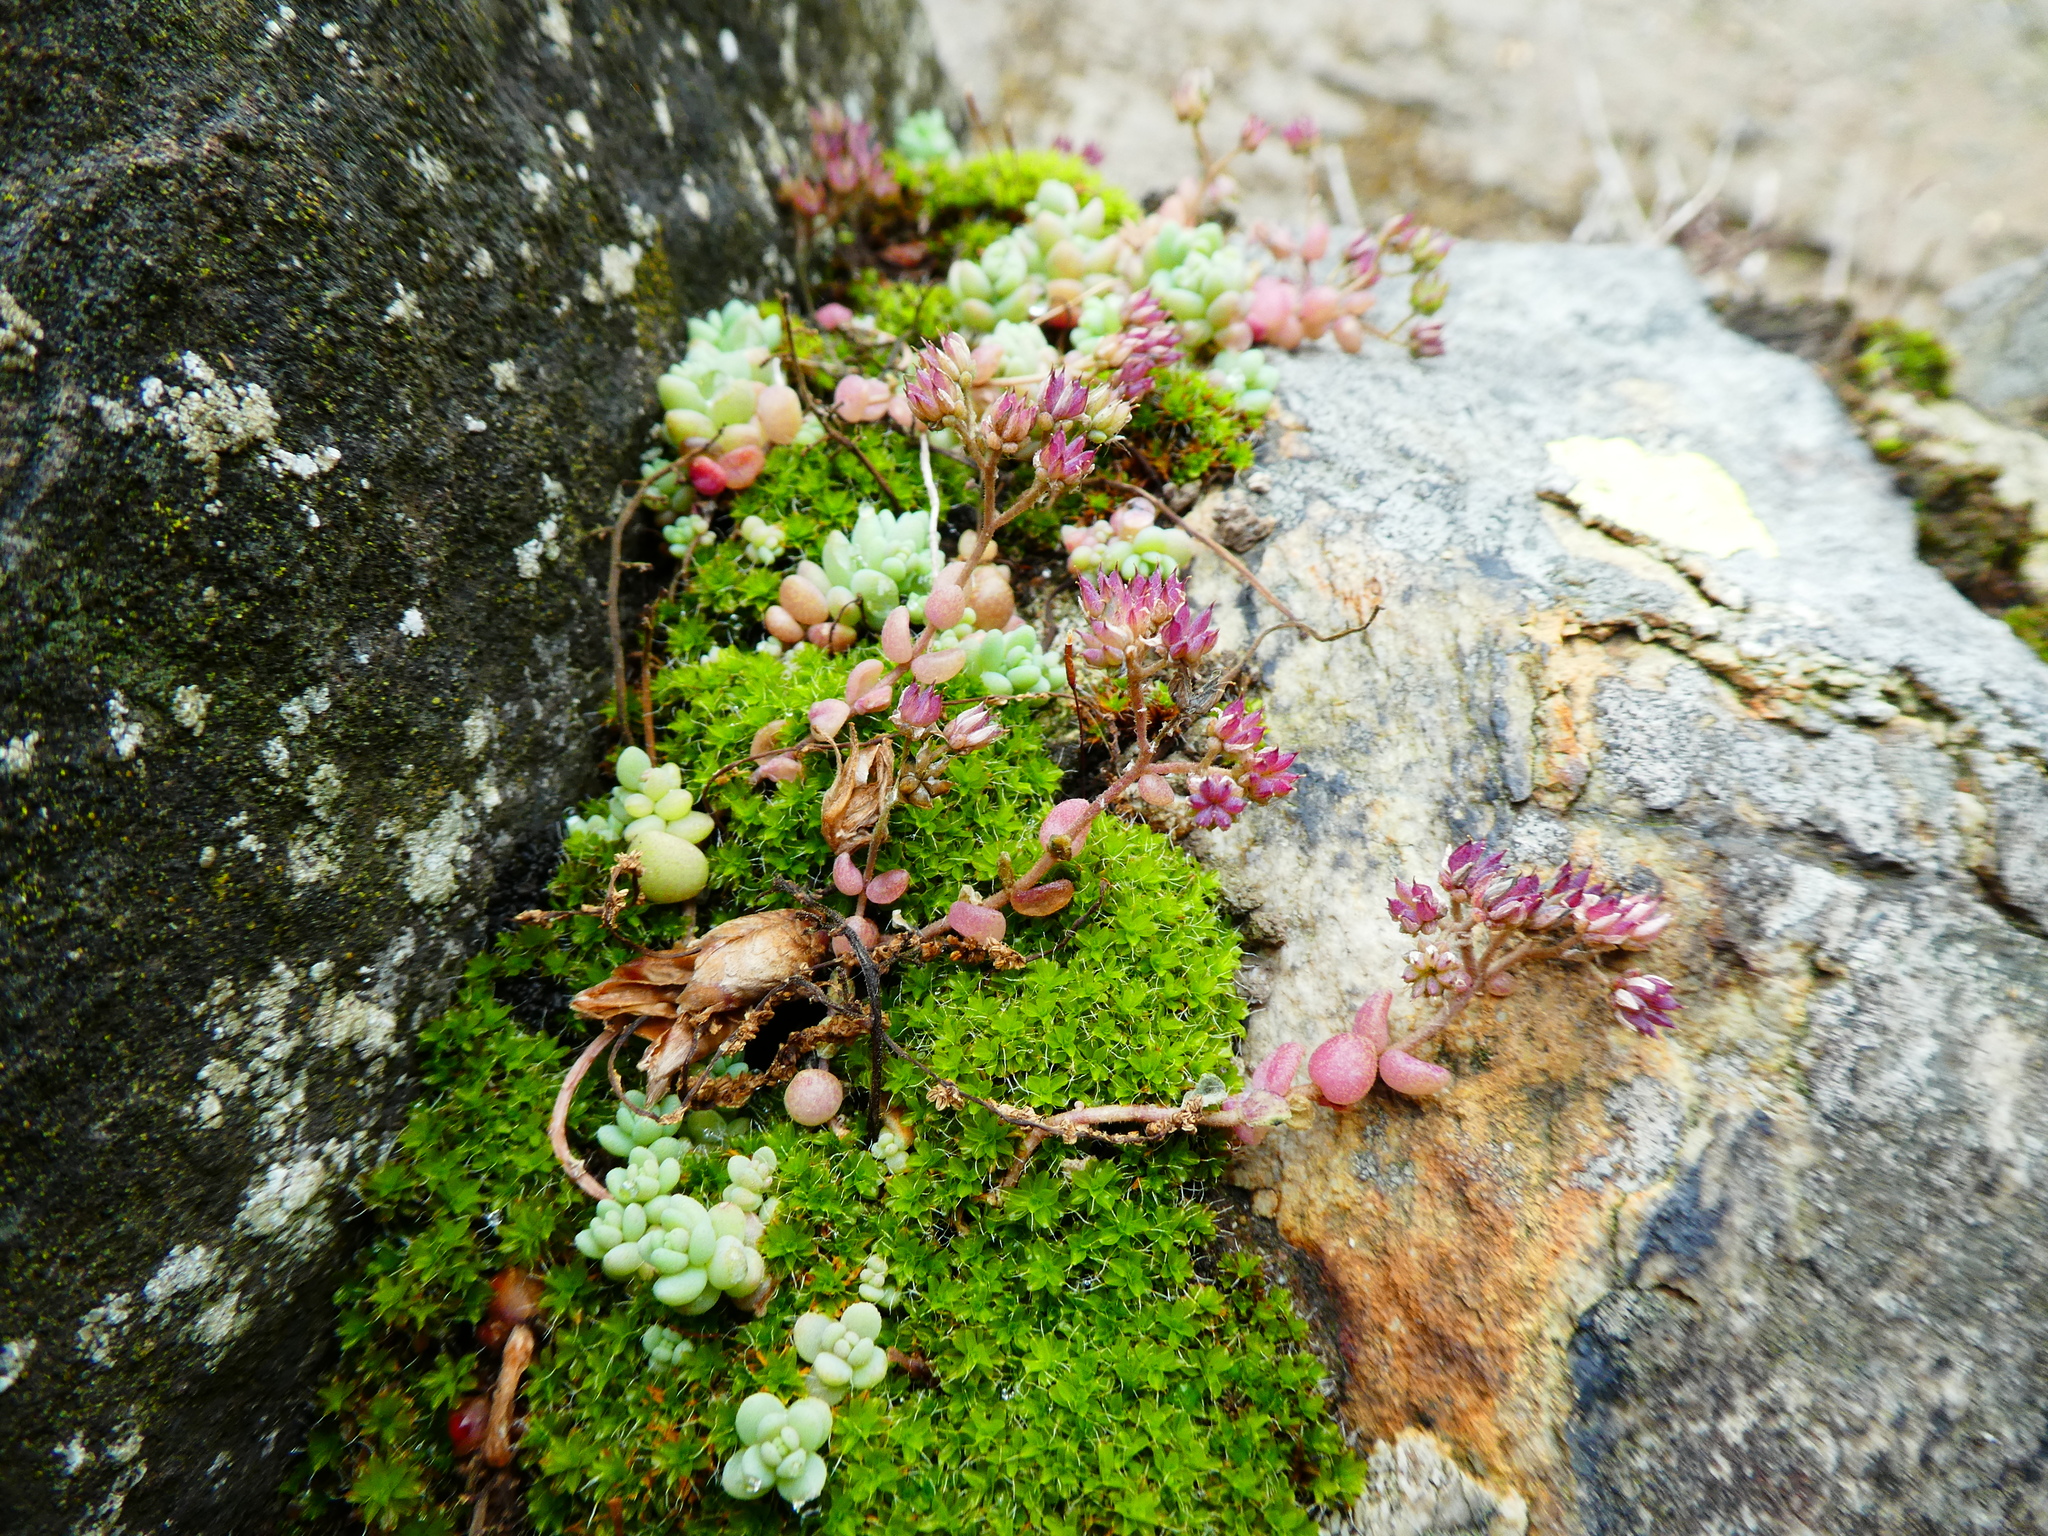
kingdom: Plantae
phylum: Tracheophyta
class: Magnoliopsida
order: Saxifragales
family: Crassulaceae
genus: Sedum
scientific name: Sedum dasyphyllum
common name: Thick-leaf stonecrop
